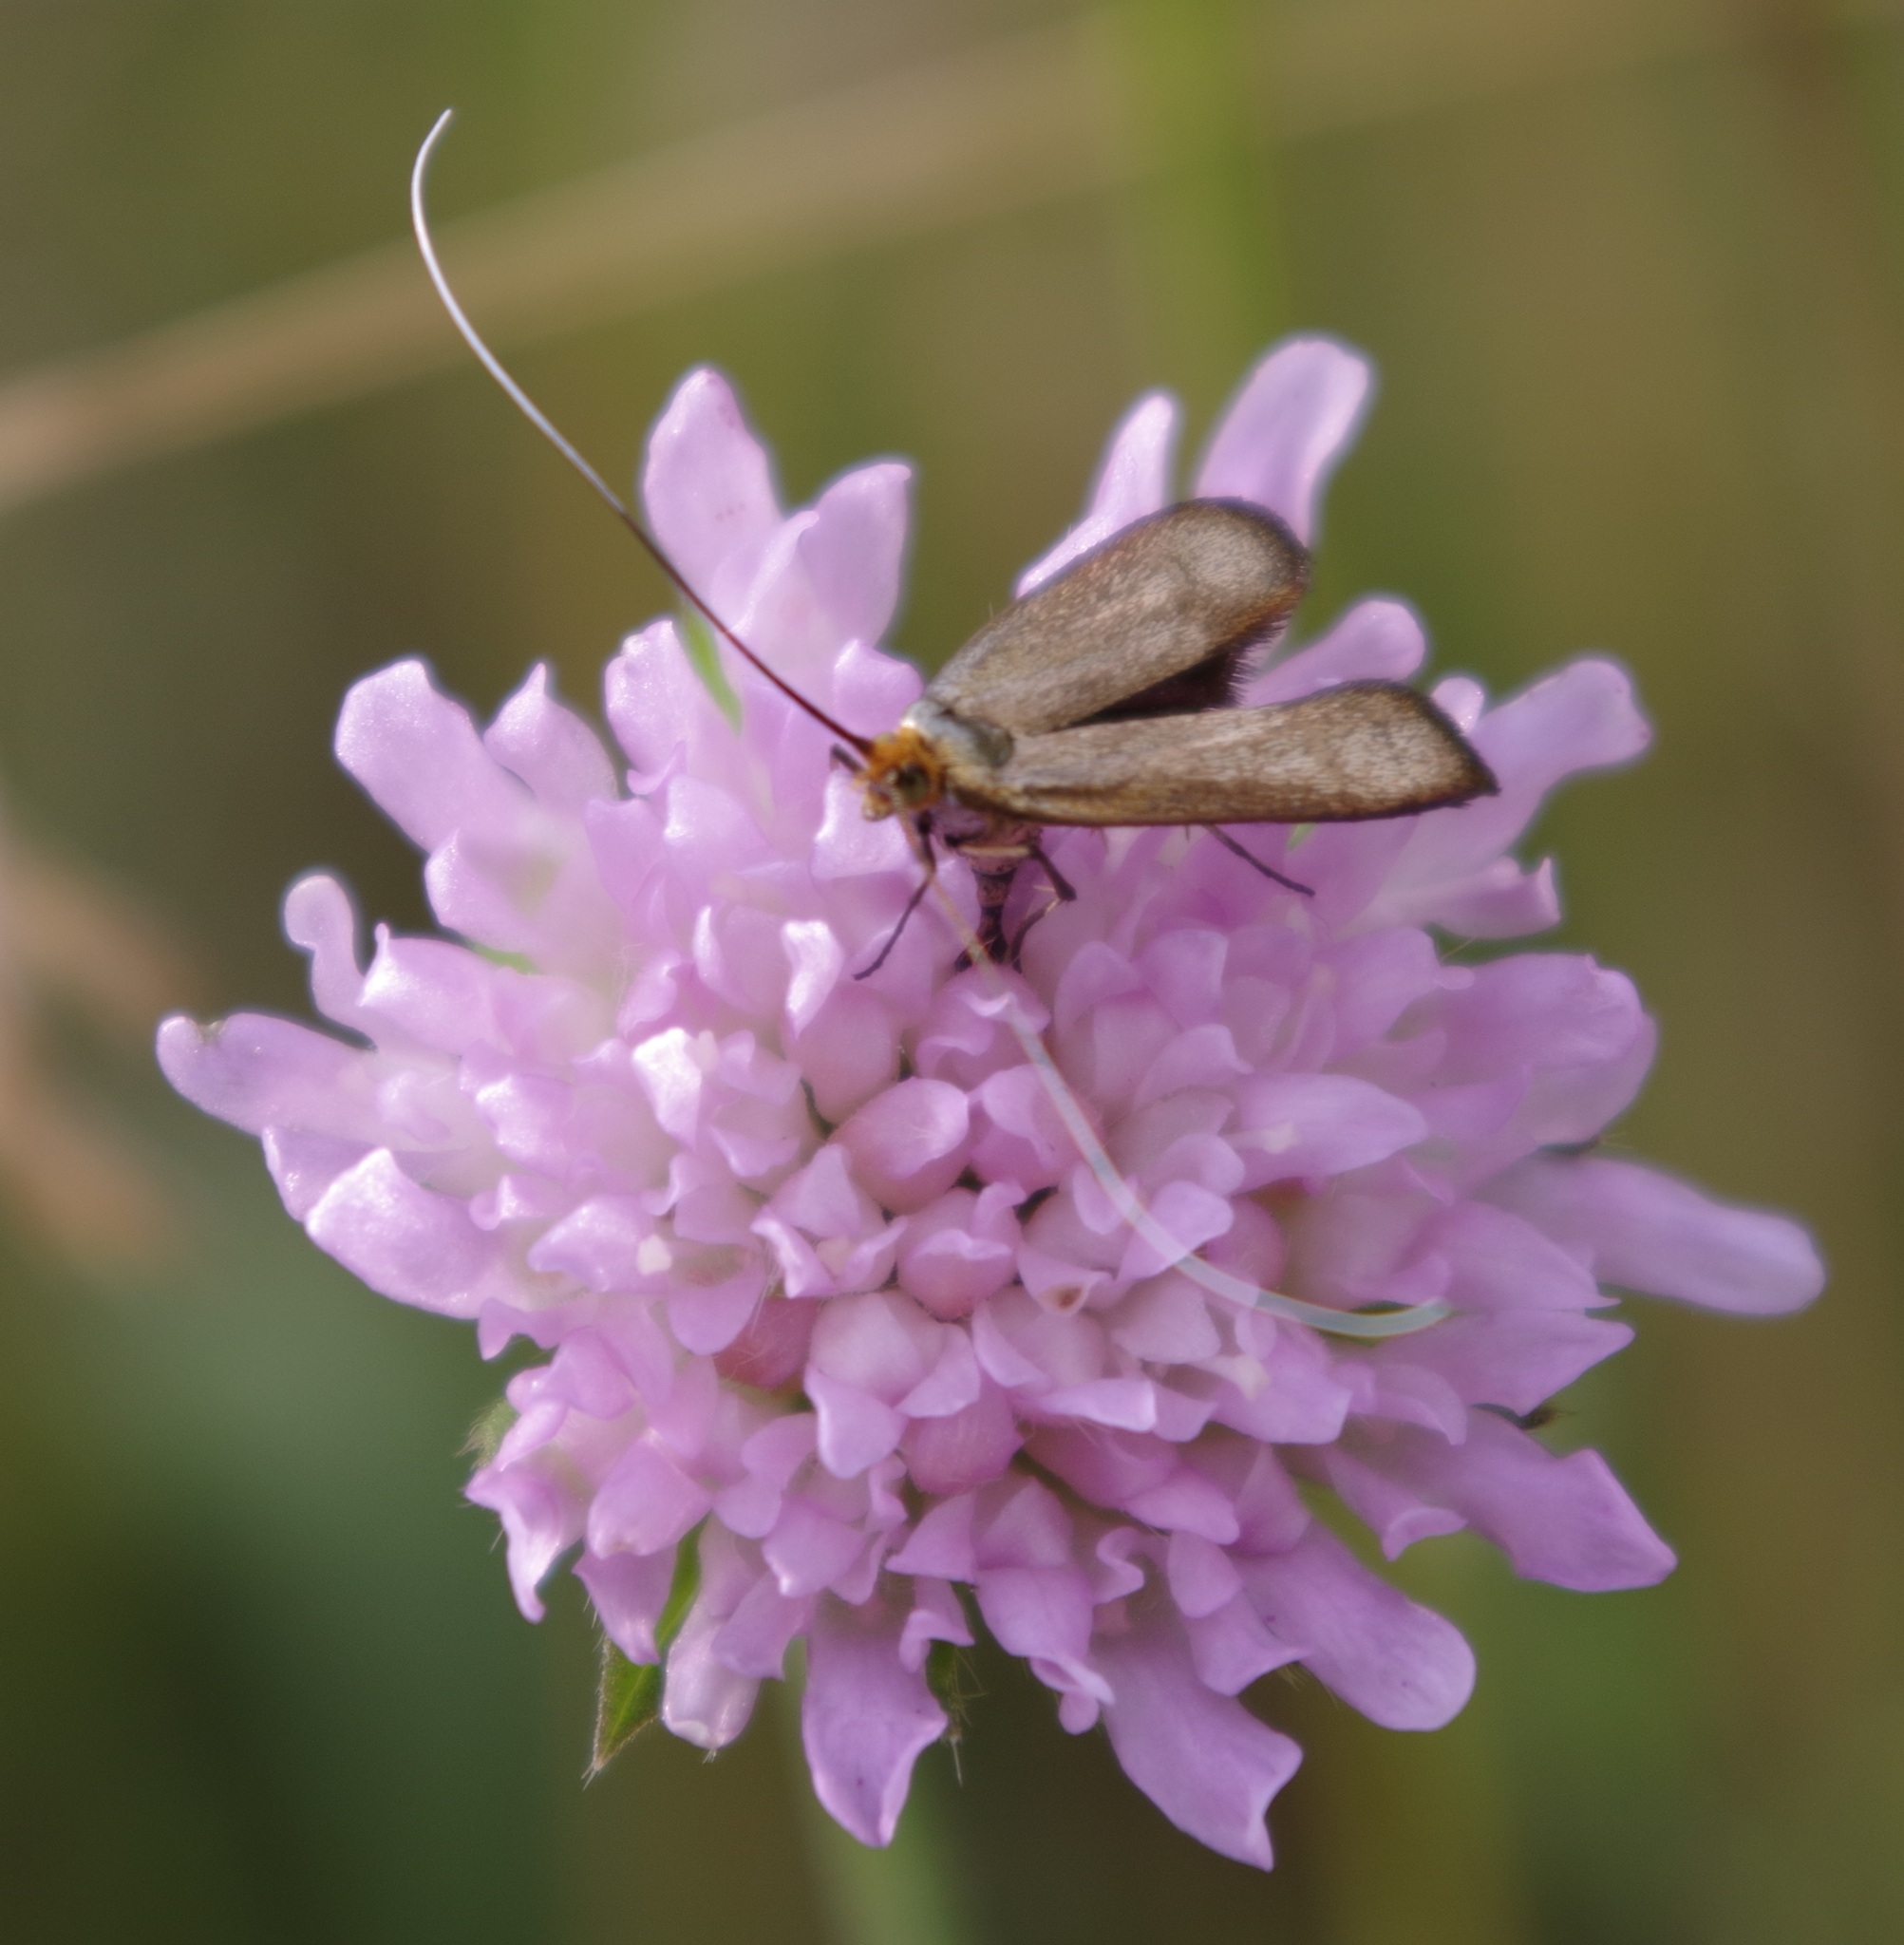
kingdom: Animalia
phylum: Arthropoda
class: Insecta
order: Lepidoptera
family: Adelidae
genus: Nemophora
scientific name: Nemophora metallica
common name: Brassy long-horn
